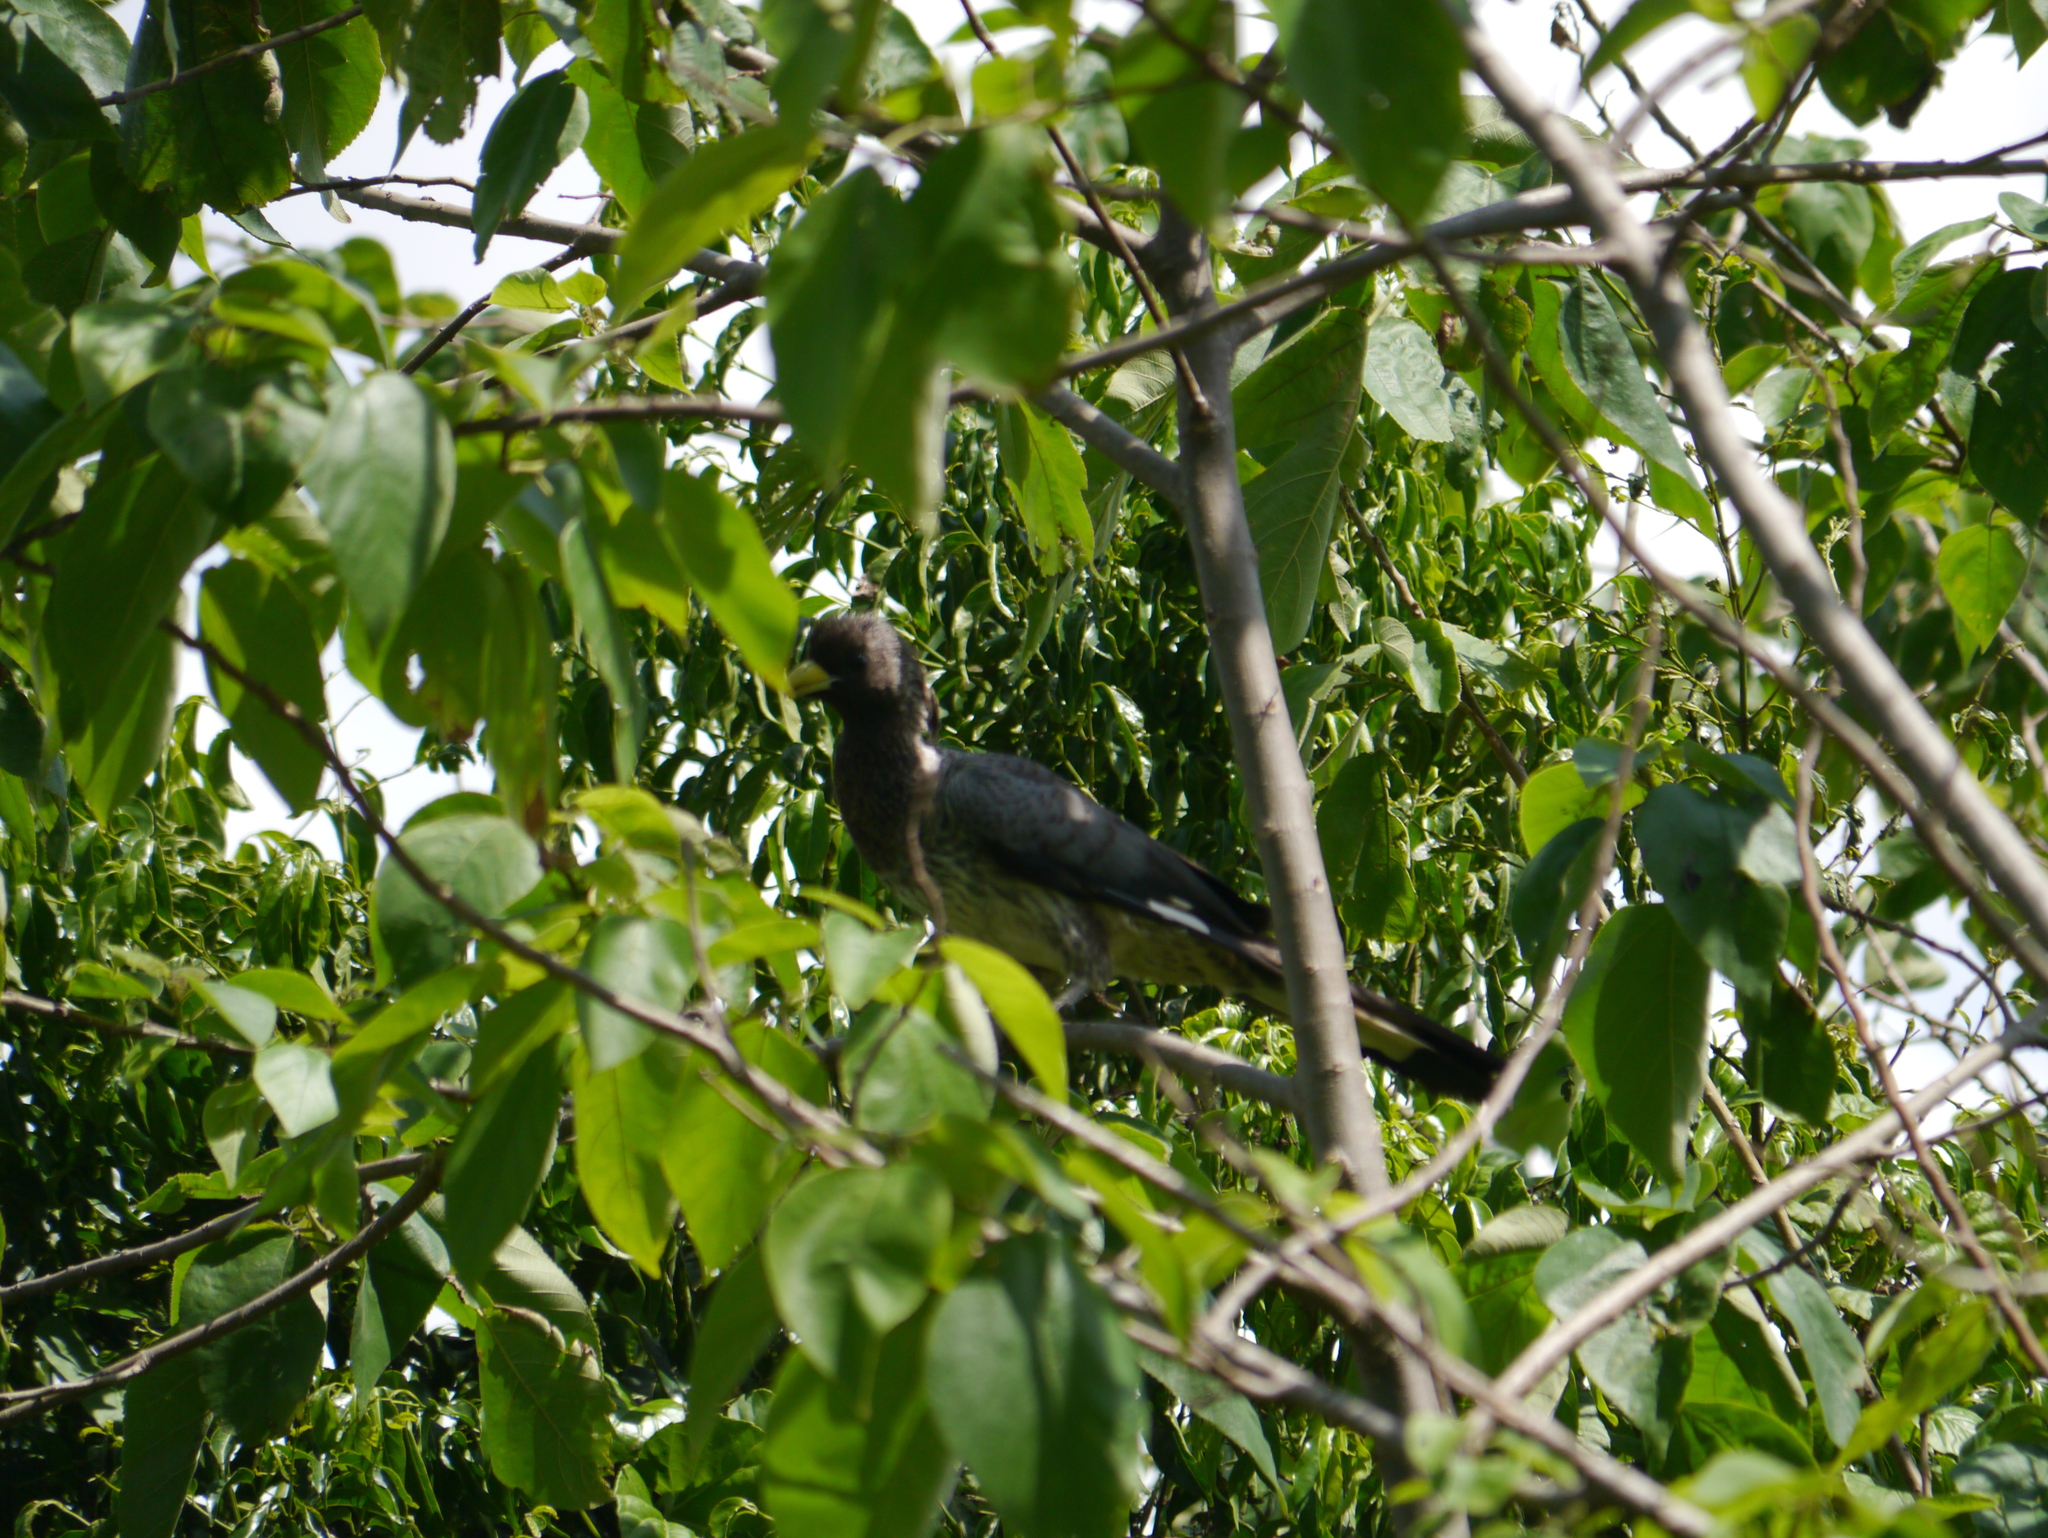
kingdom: Animalia
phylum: Chordata
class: Aves
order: Musophagiformes
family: Musophagidae
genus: Crinifer
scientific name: Crinifer zonurus
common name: Eastern plantain-eater
